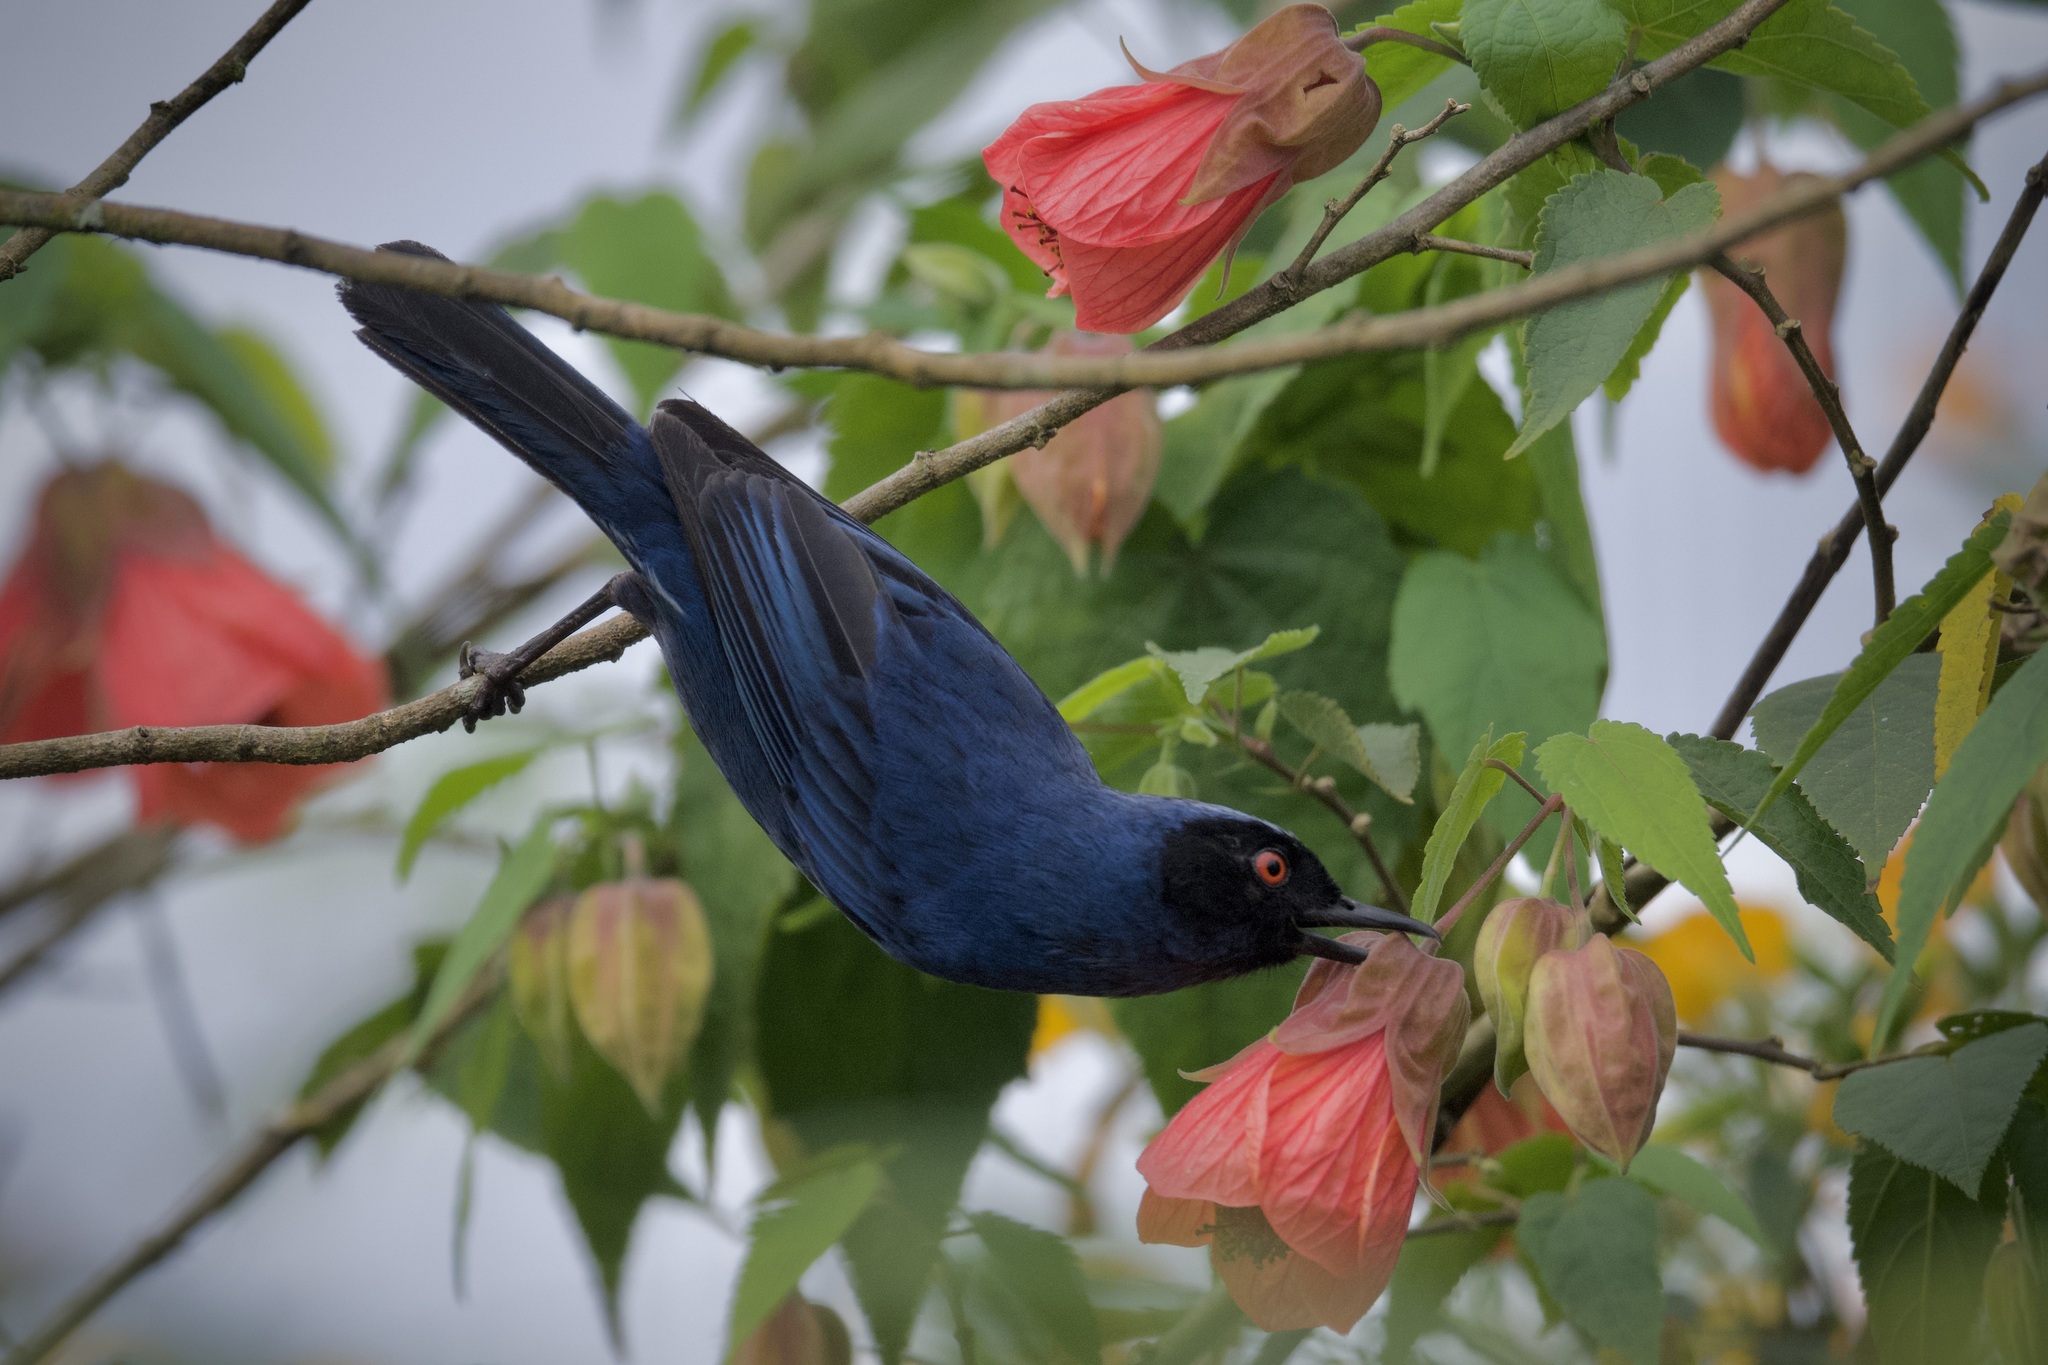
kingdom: Animalia
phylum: Chordata
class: Aves
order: Passeriformes
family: Thraupidae
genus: Diglossa
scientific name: Diglossa cyanea
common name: Masked flowerpiercer
